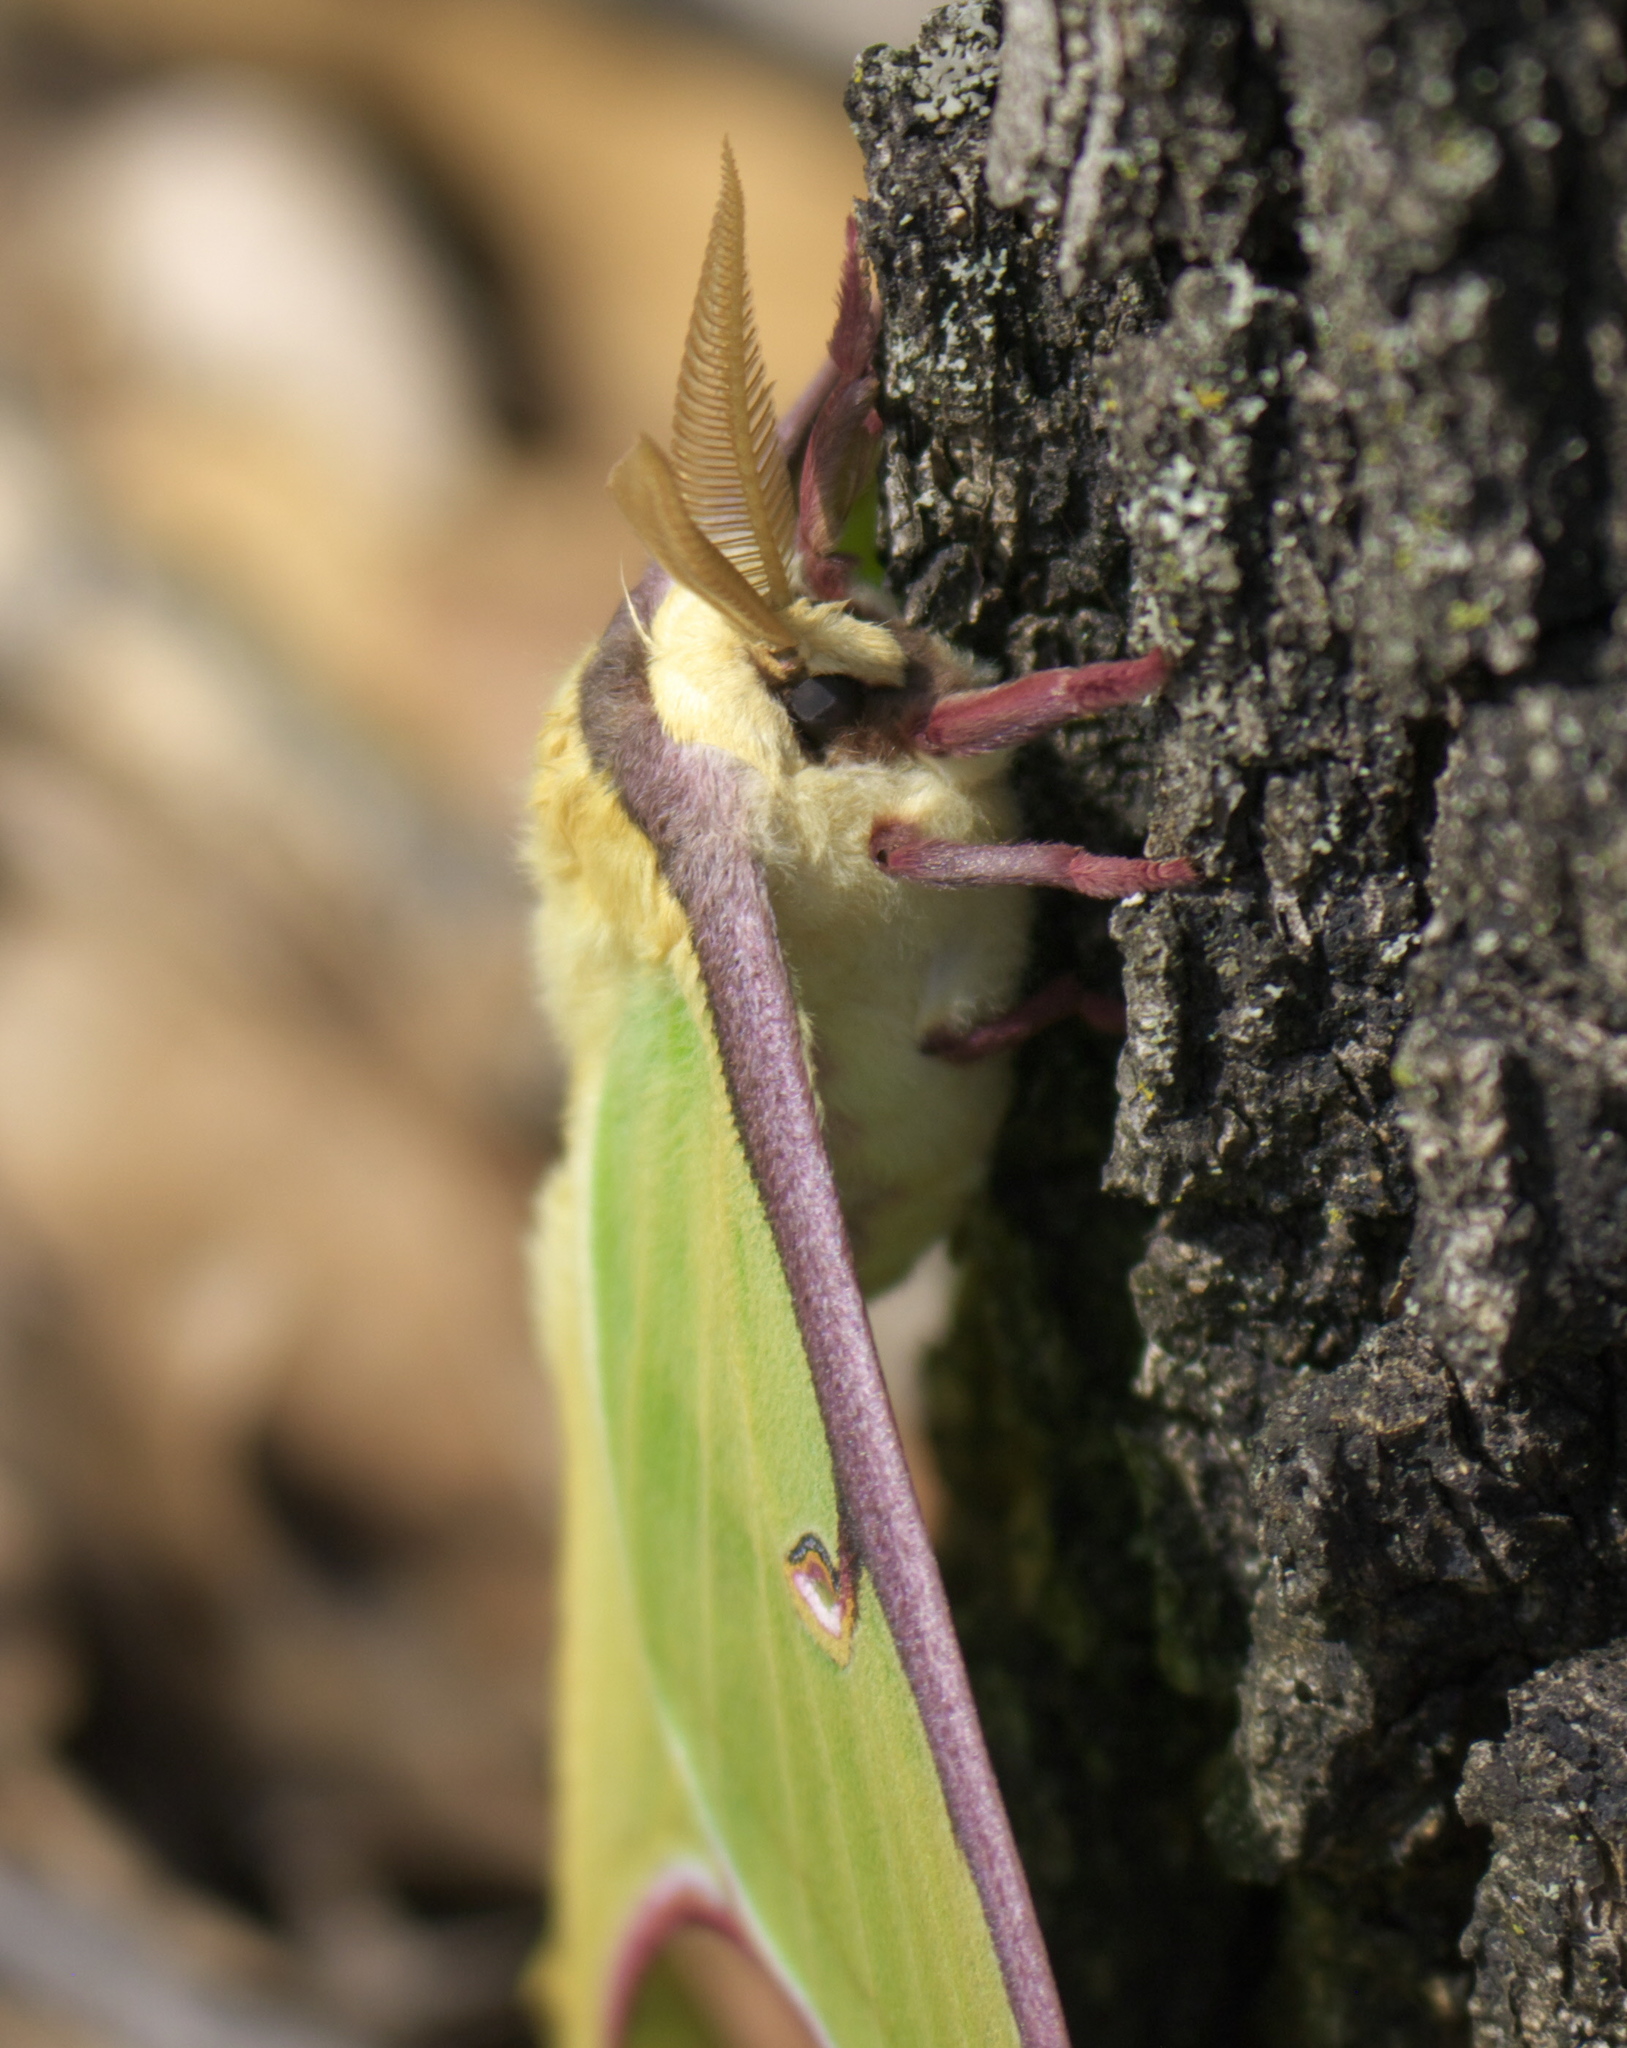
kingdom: Animalia
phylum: Arthropoda
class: Insecta
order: Lepidoptera
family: Saturniidae
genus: Actias
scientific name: Actias luna
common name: Luna moth
